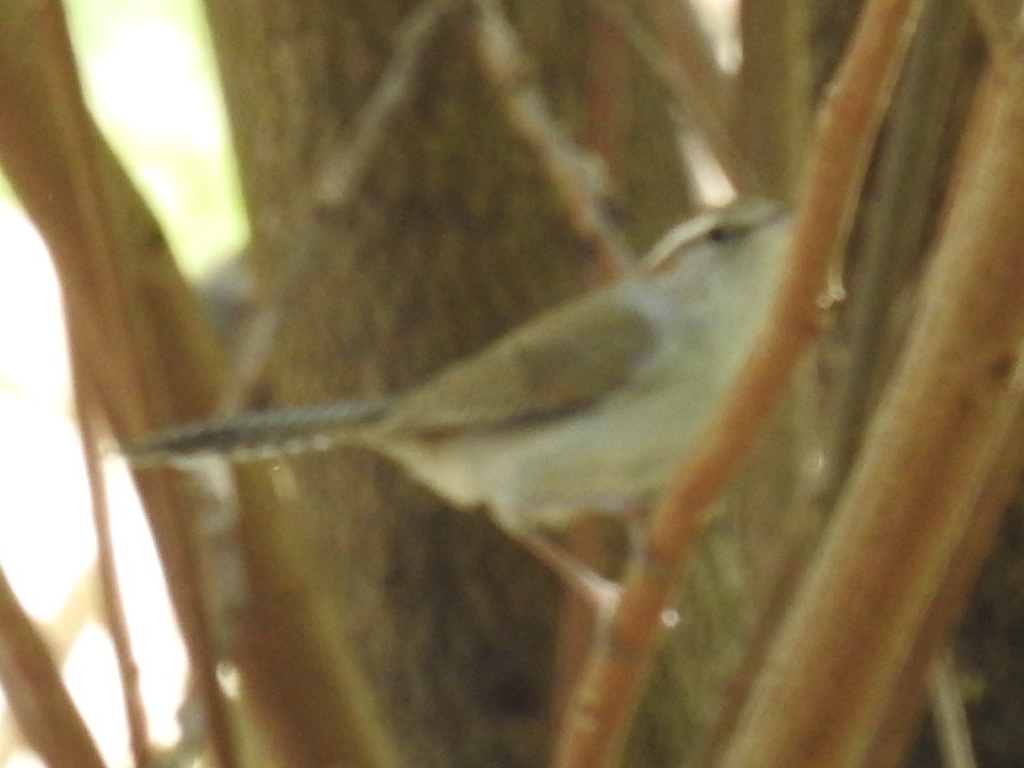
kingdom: Animalia
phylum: Chordata
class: Aves
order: Passeriformes
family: Troglodytidae
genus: Thryomanes
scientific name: Thryomanes bewickii
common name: Bewick's wren
